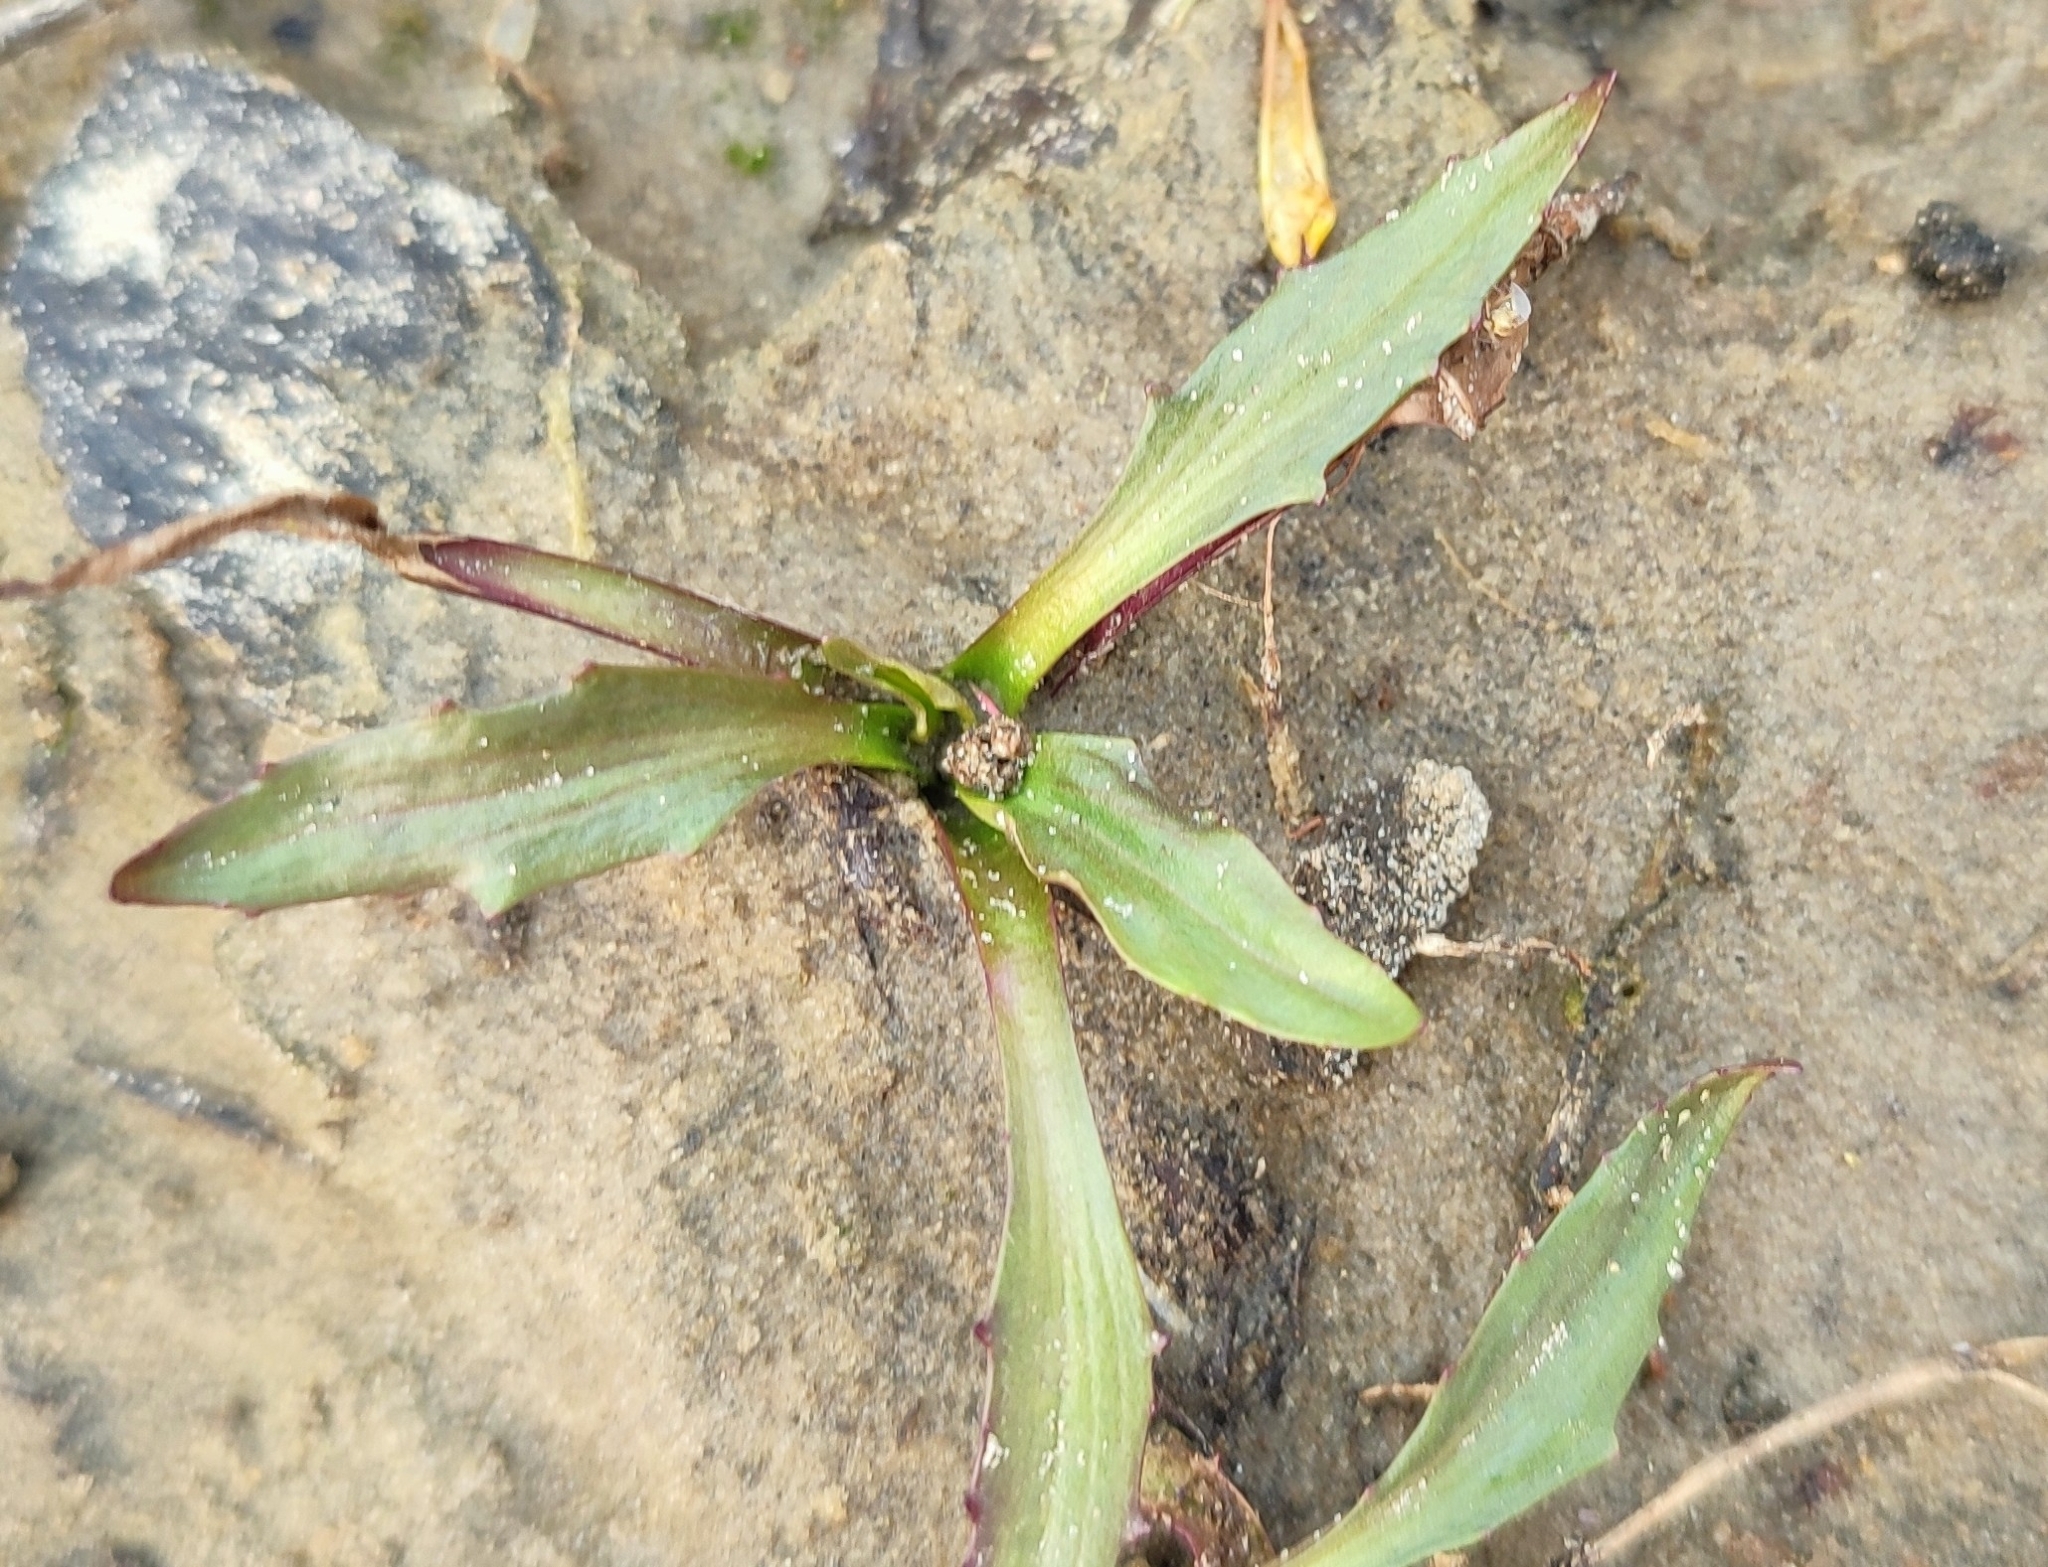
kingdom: Plantae
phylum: Tracheophyta
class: Magnoliopsida
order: Asterales
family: Asteraceae
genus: Tephroseris
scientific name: Tephroseris palustris
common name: Marsh fleawort
